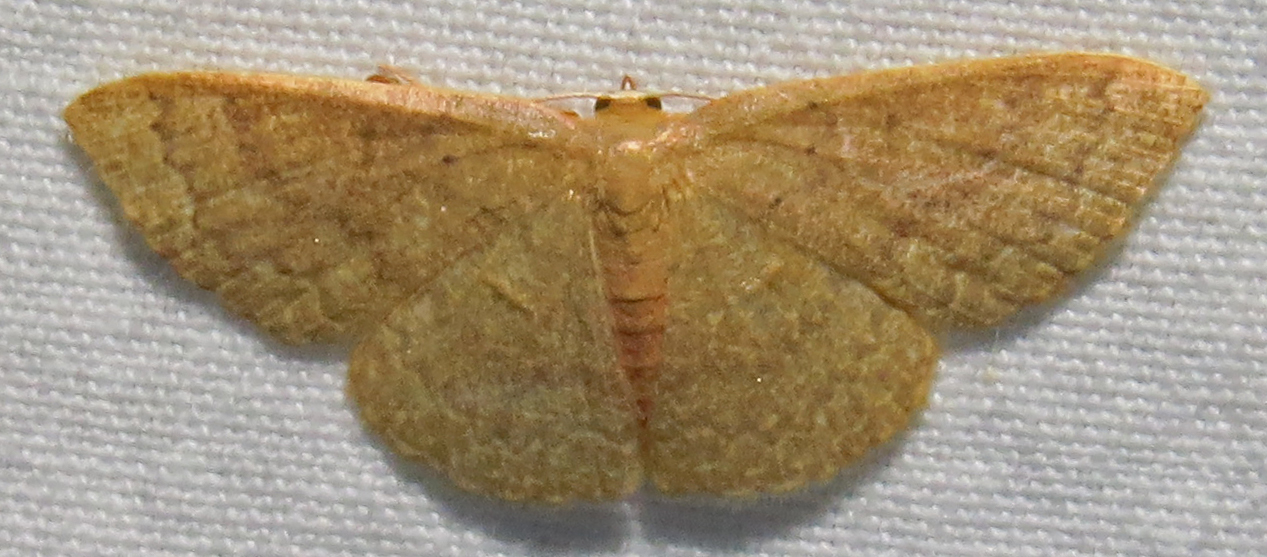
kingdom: Animalia
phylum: Arthropoda
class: Insecta
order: Lepidoptera
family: Geometridae
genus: Pleuroprucha
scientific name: Pleuroprucha insulsaria
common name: Common tan wave
